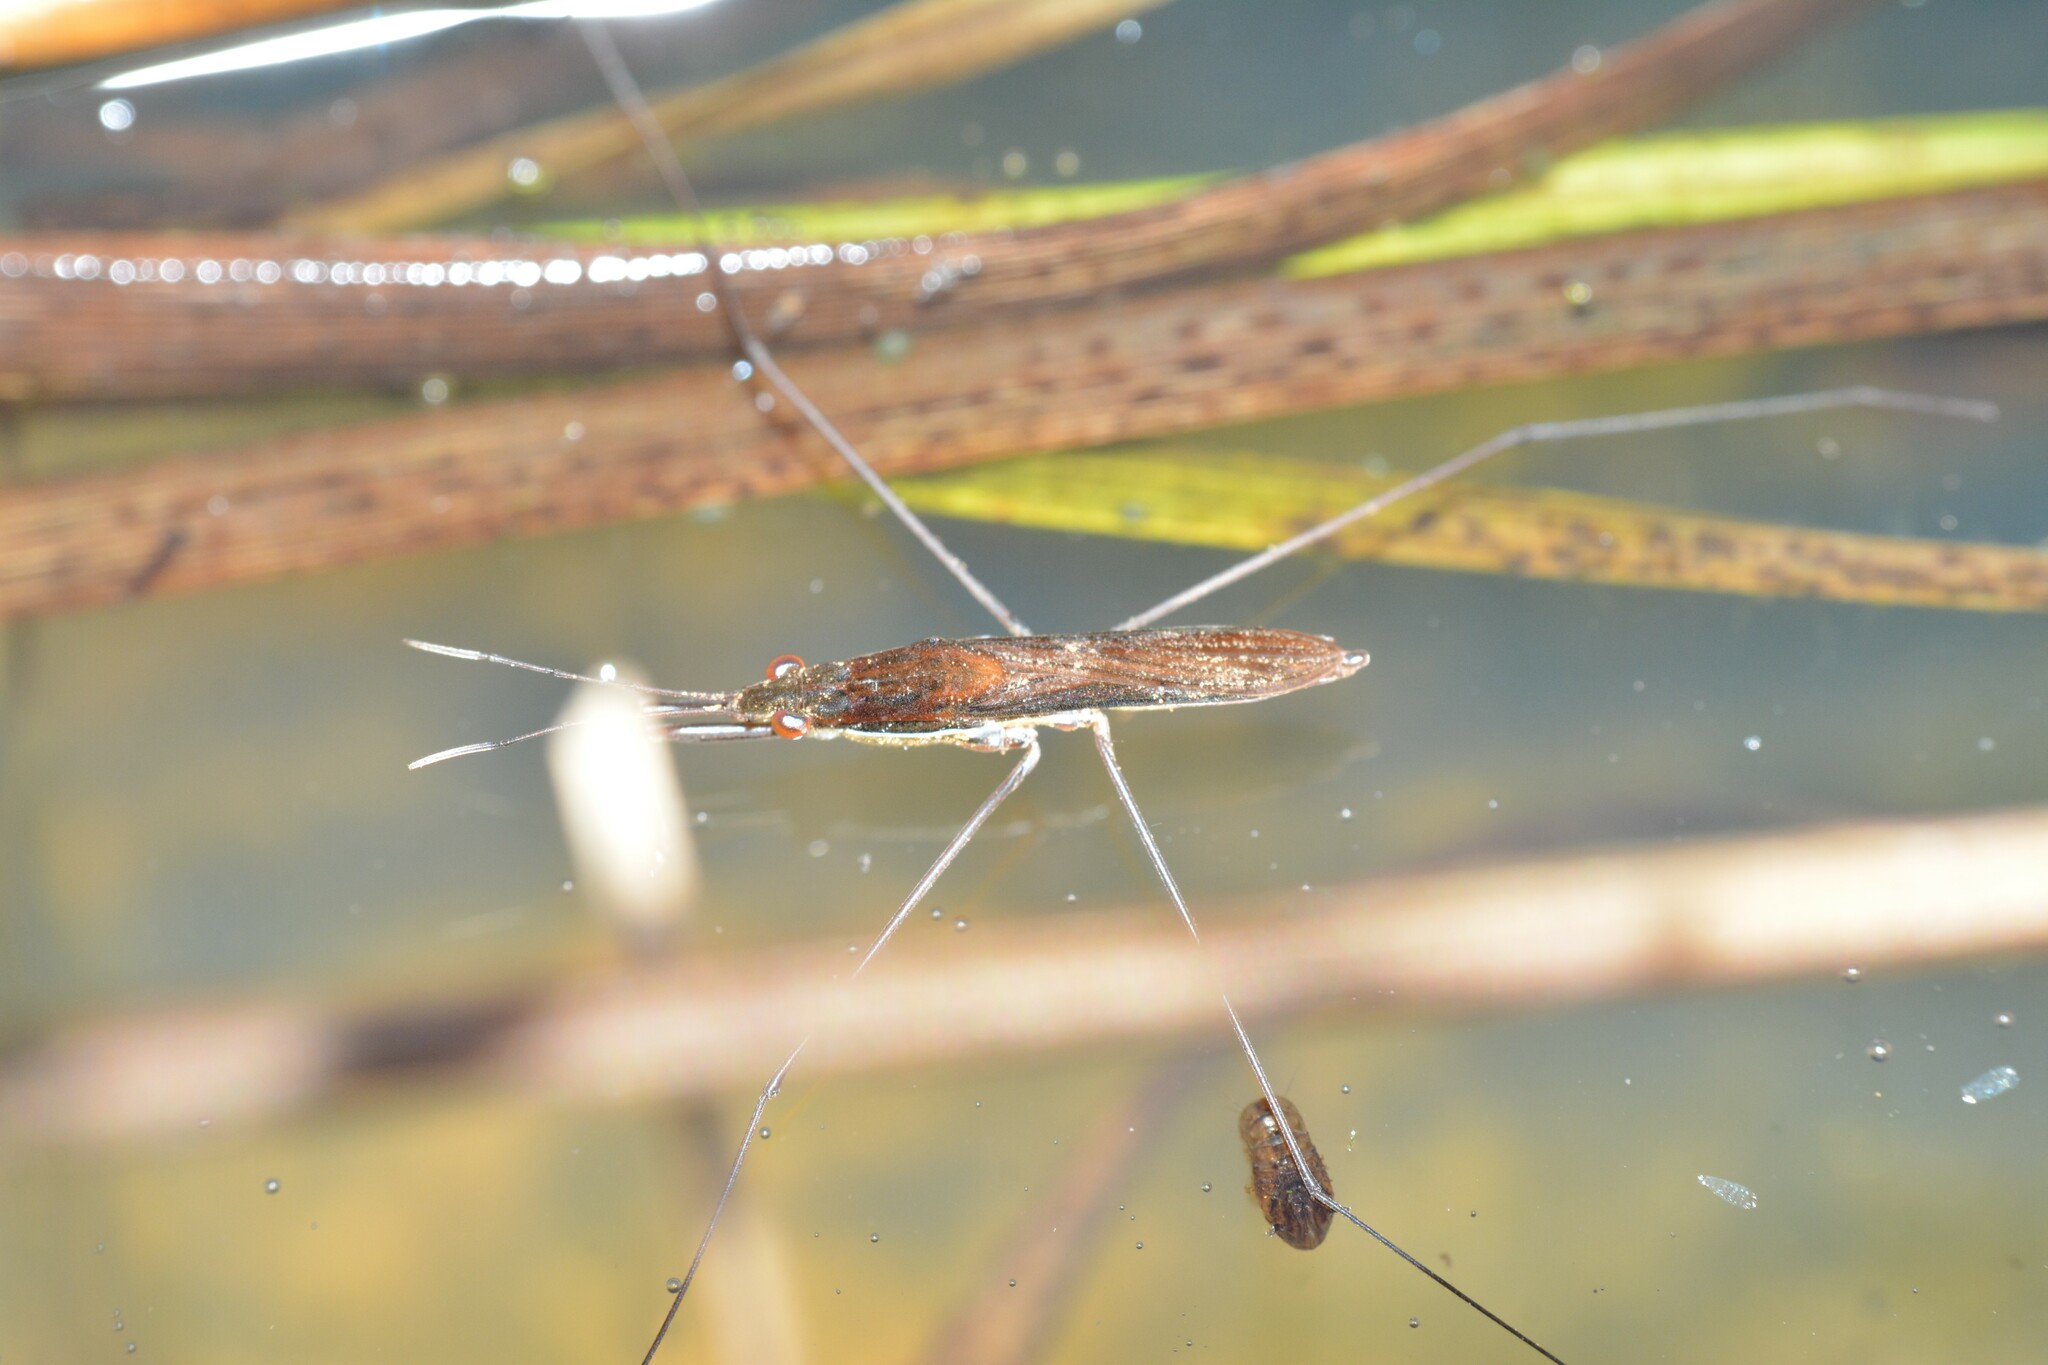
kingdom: Animalia
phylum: Arthropoda
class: Insecta
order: Hemiptera
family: Gerridae
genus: Limnoporus
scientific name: Limnoporus dissortis
